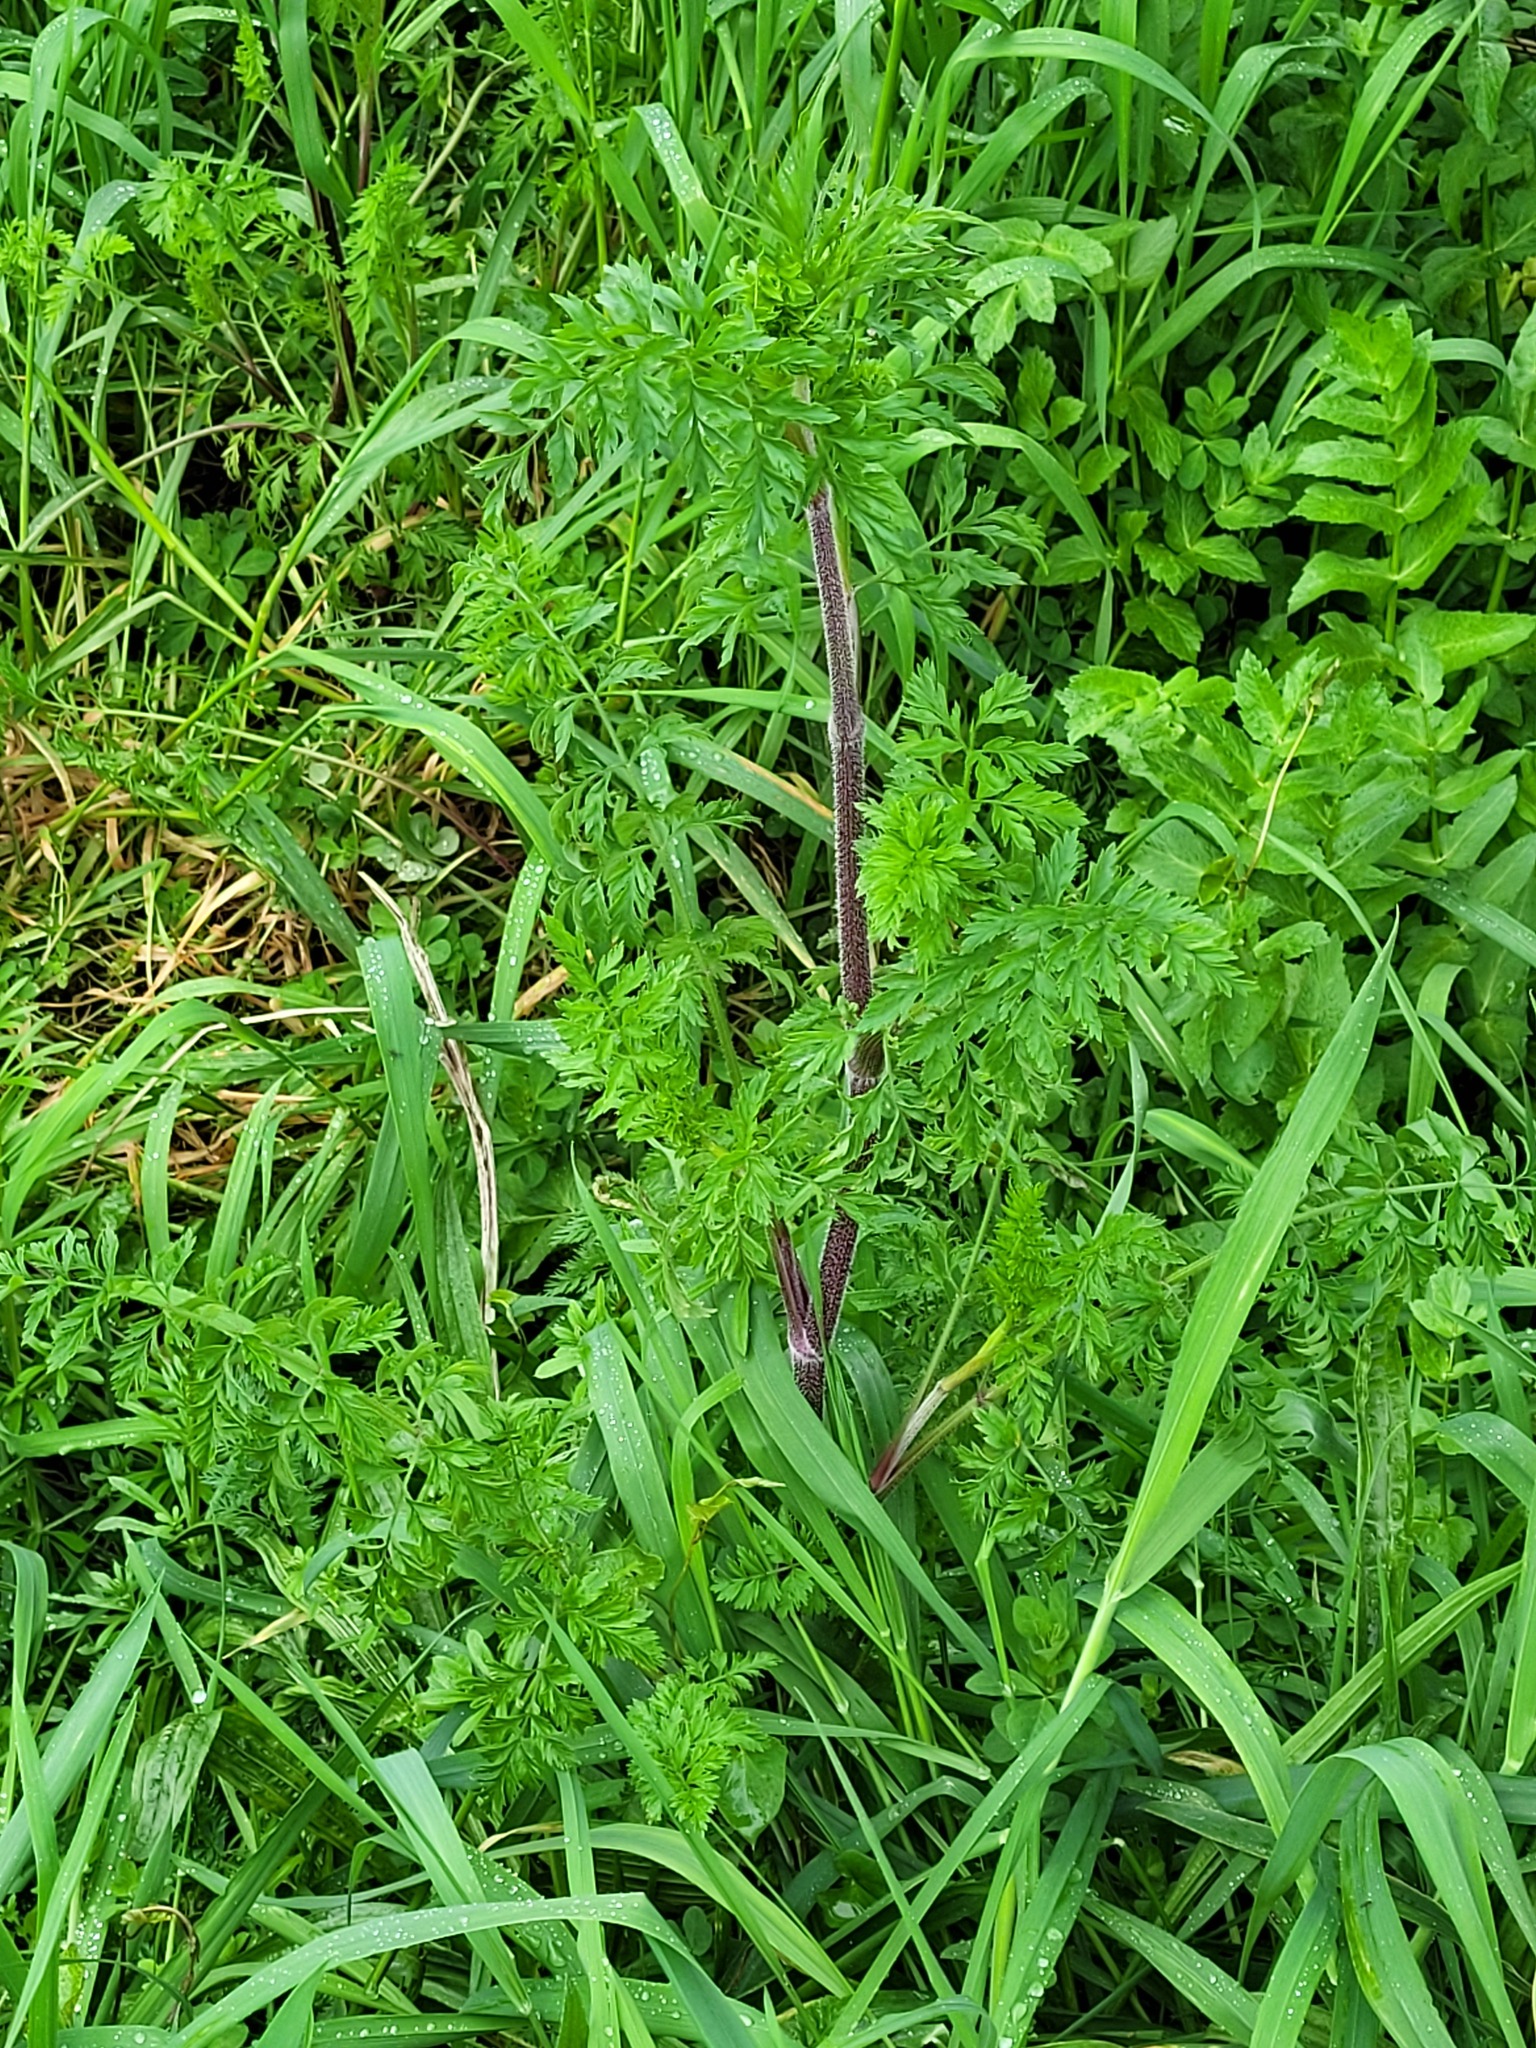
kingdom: Plantae
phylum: Tracheophyta
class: Magnoliopsida
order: Apiales
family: Apiaceae
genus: Daucus
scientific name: Daucus carota
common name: Wild carrot
